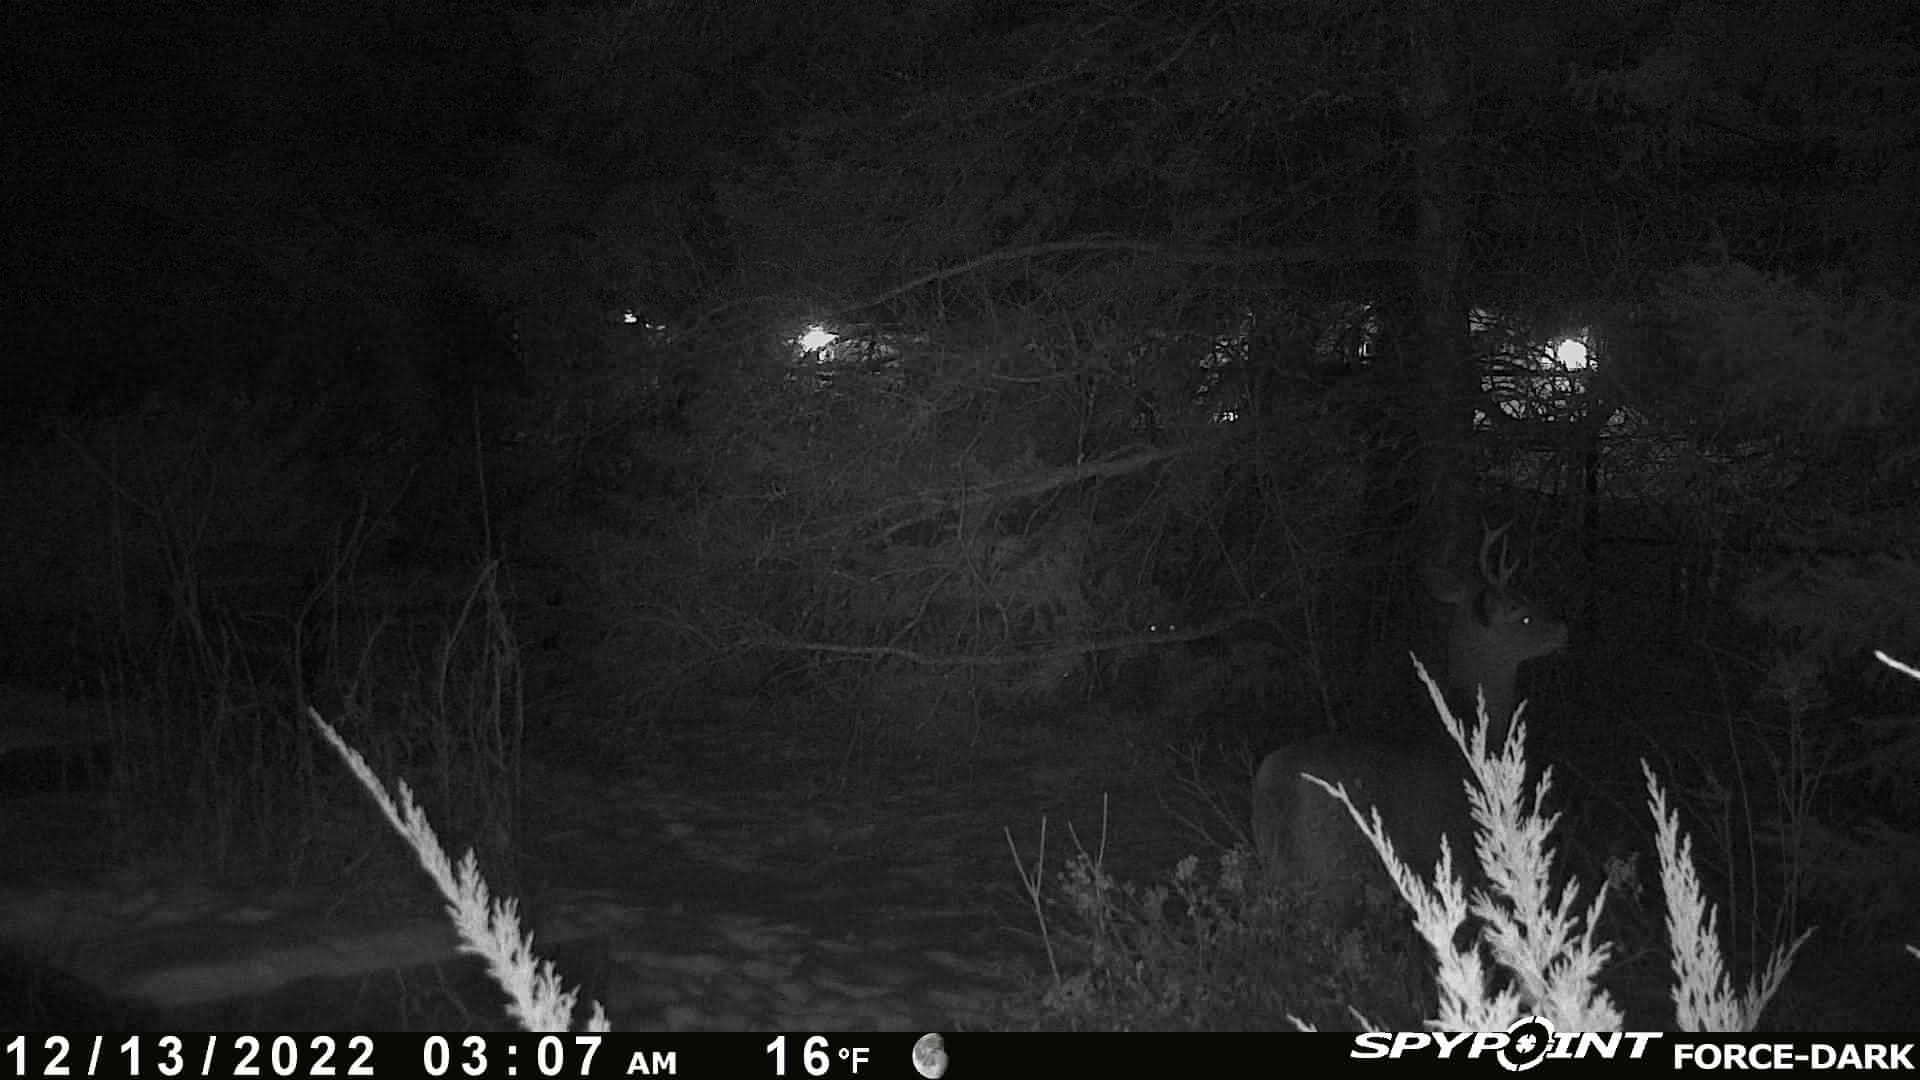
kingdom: Animalia
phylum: Chordata
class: Mammalia
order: Artiodactyla
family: Cervidae
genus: Odocoileus
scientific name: Odocoileus virginianus
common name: White-tailed deer
